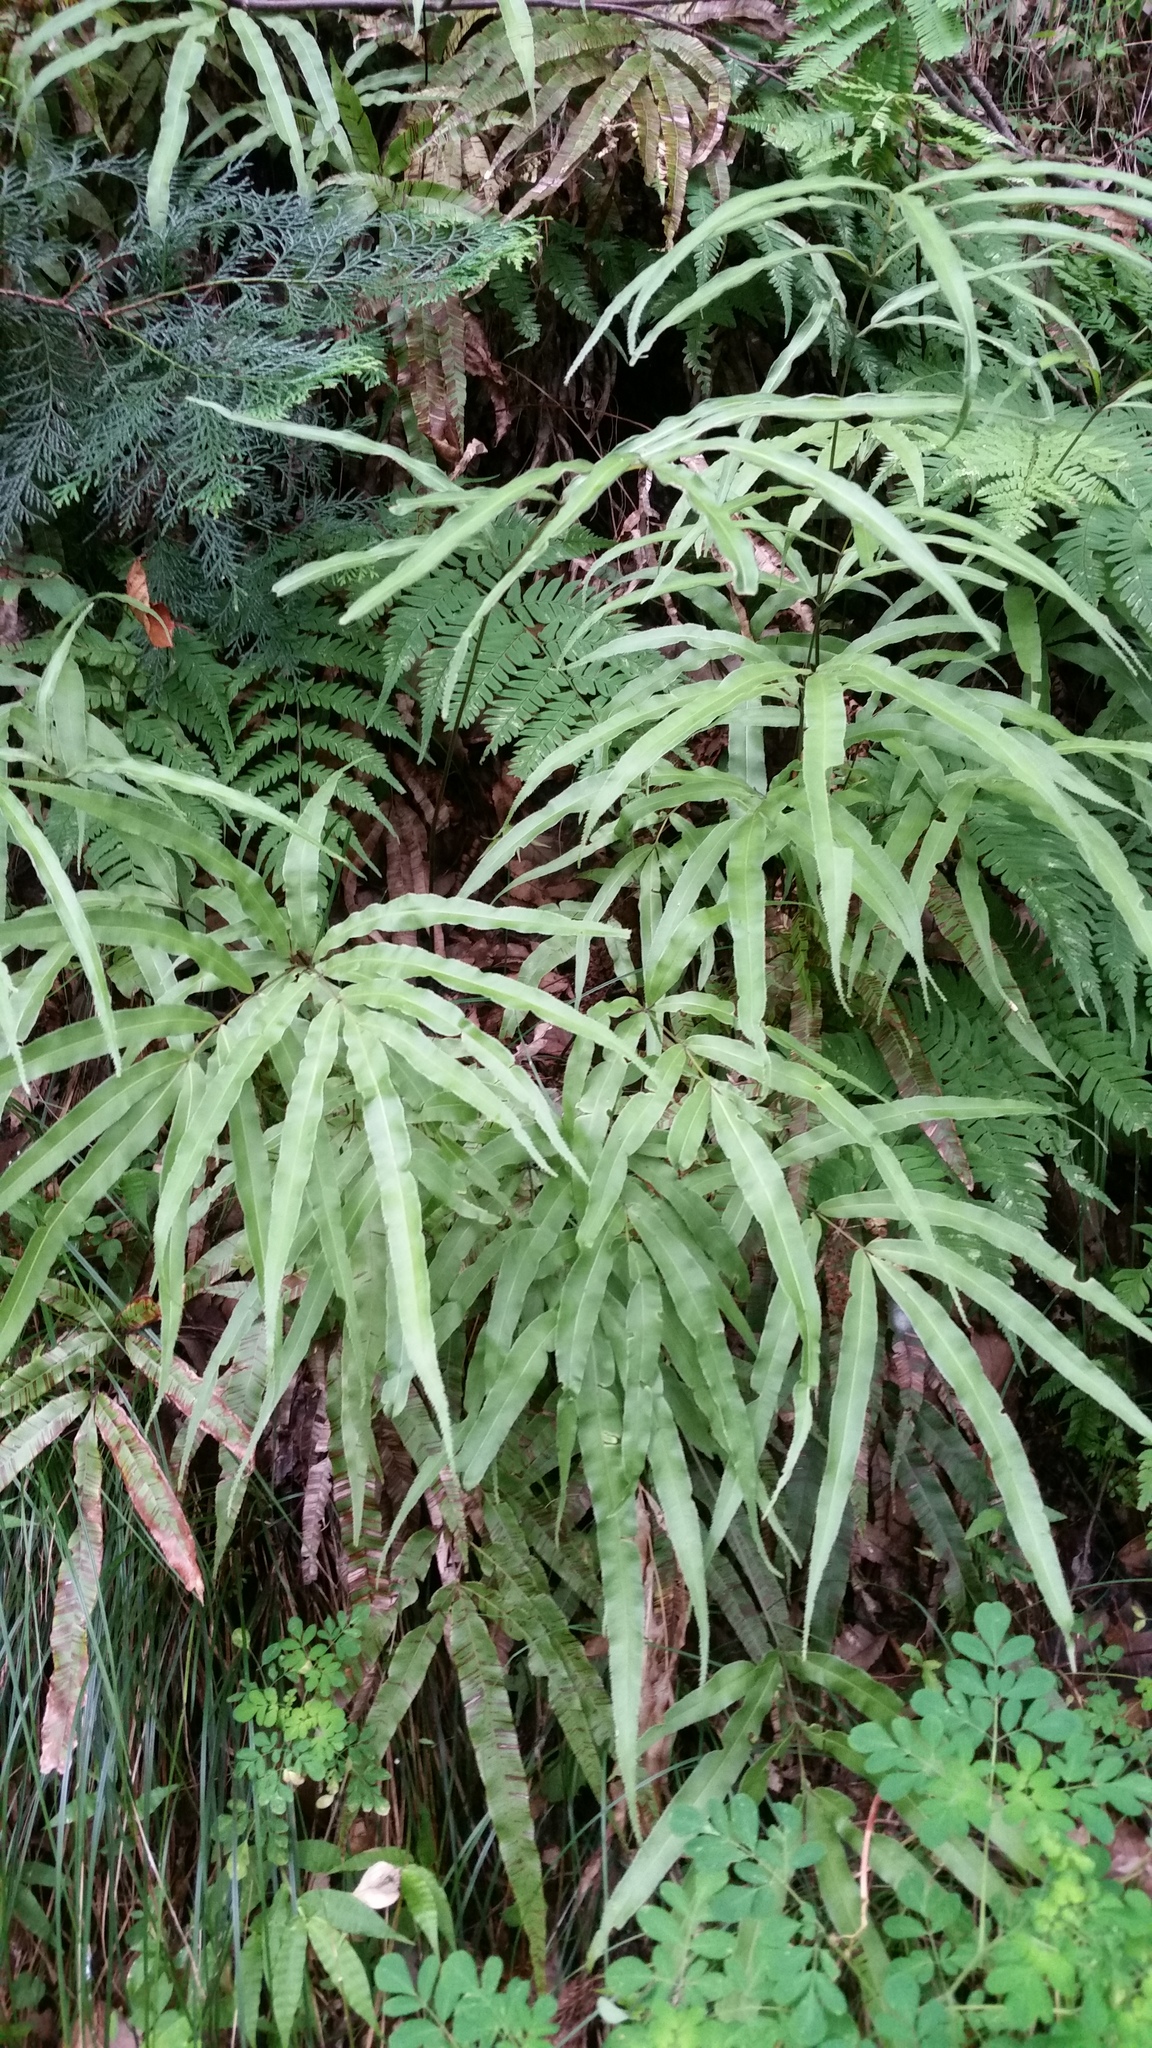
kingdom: Plantae
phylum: Tracheophyta
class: Polypodiopsida
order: Polypodiales
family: Pteridaceae
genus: Pteris
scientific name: Pteris cretica
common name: Ribbon fern
